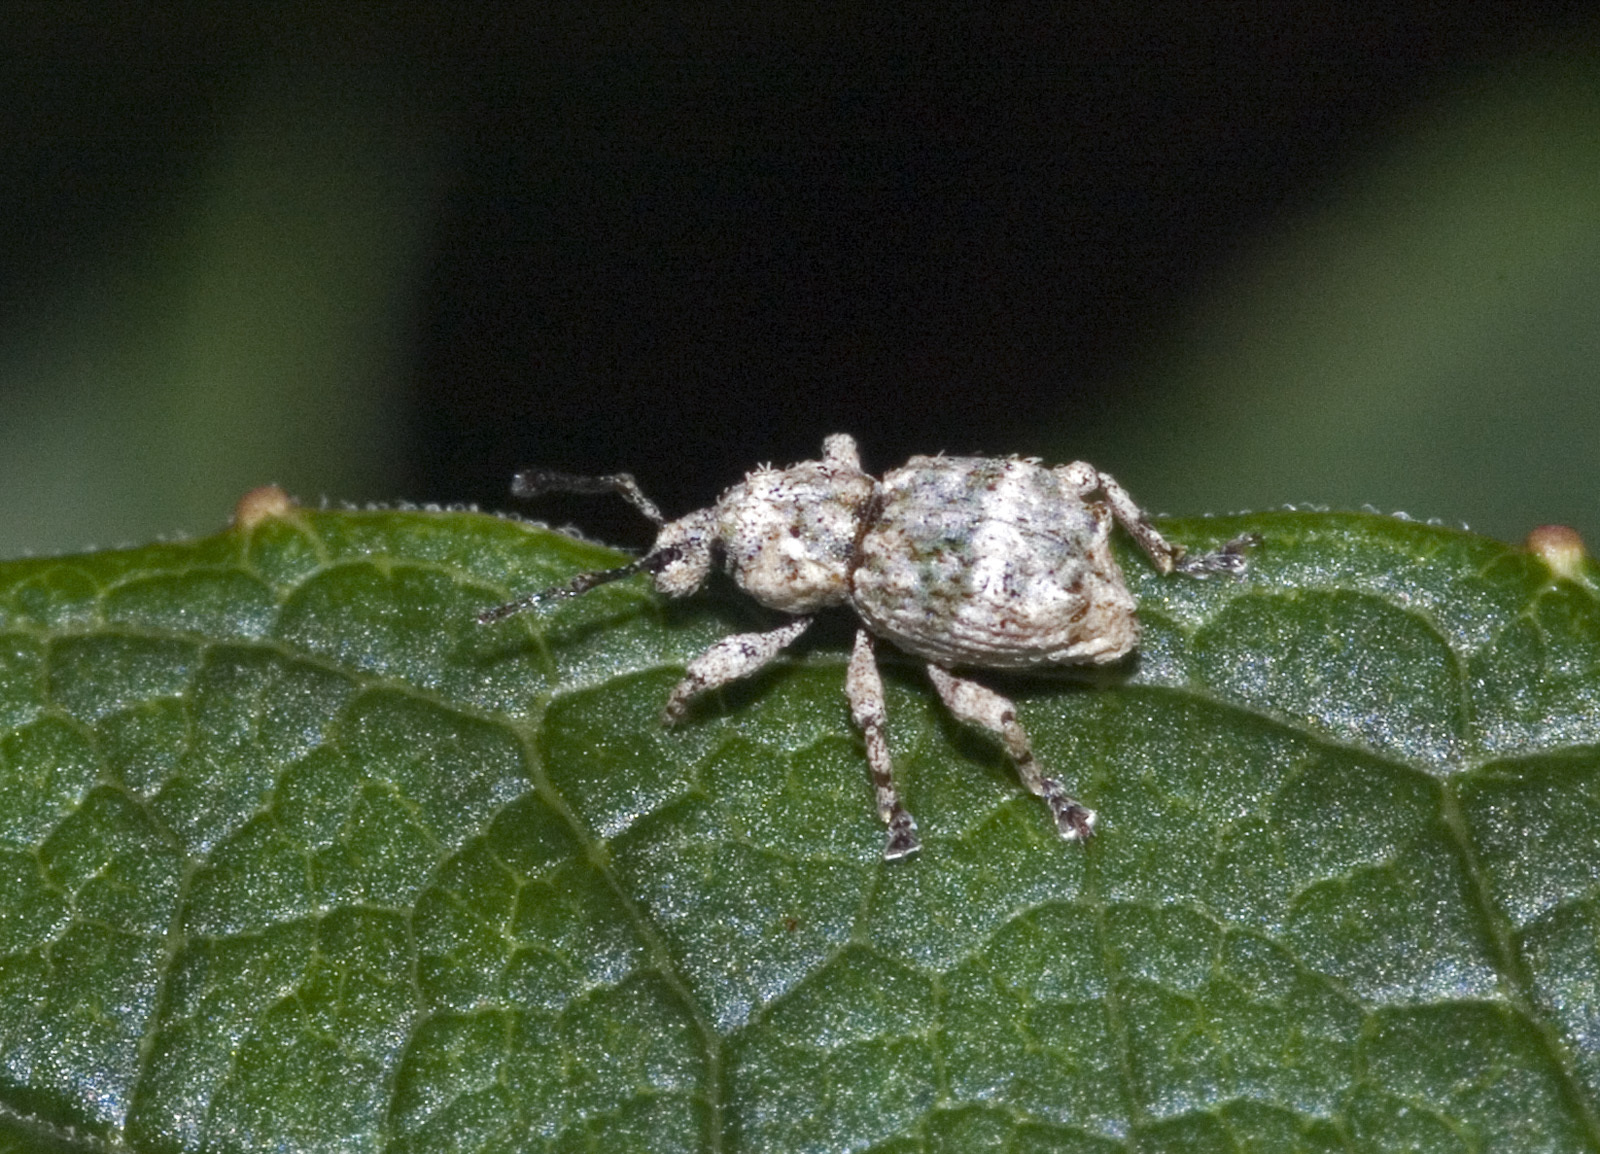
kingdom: Animalia
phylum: Arthropoda
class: Insecta
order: Coleoptera
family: Curculionidae
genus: Brachyolus
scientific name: Brachyolus punctatus
